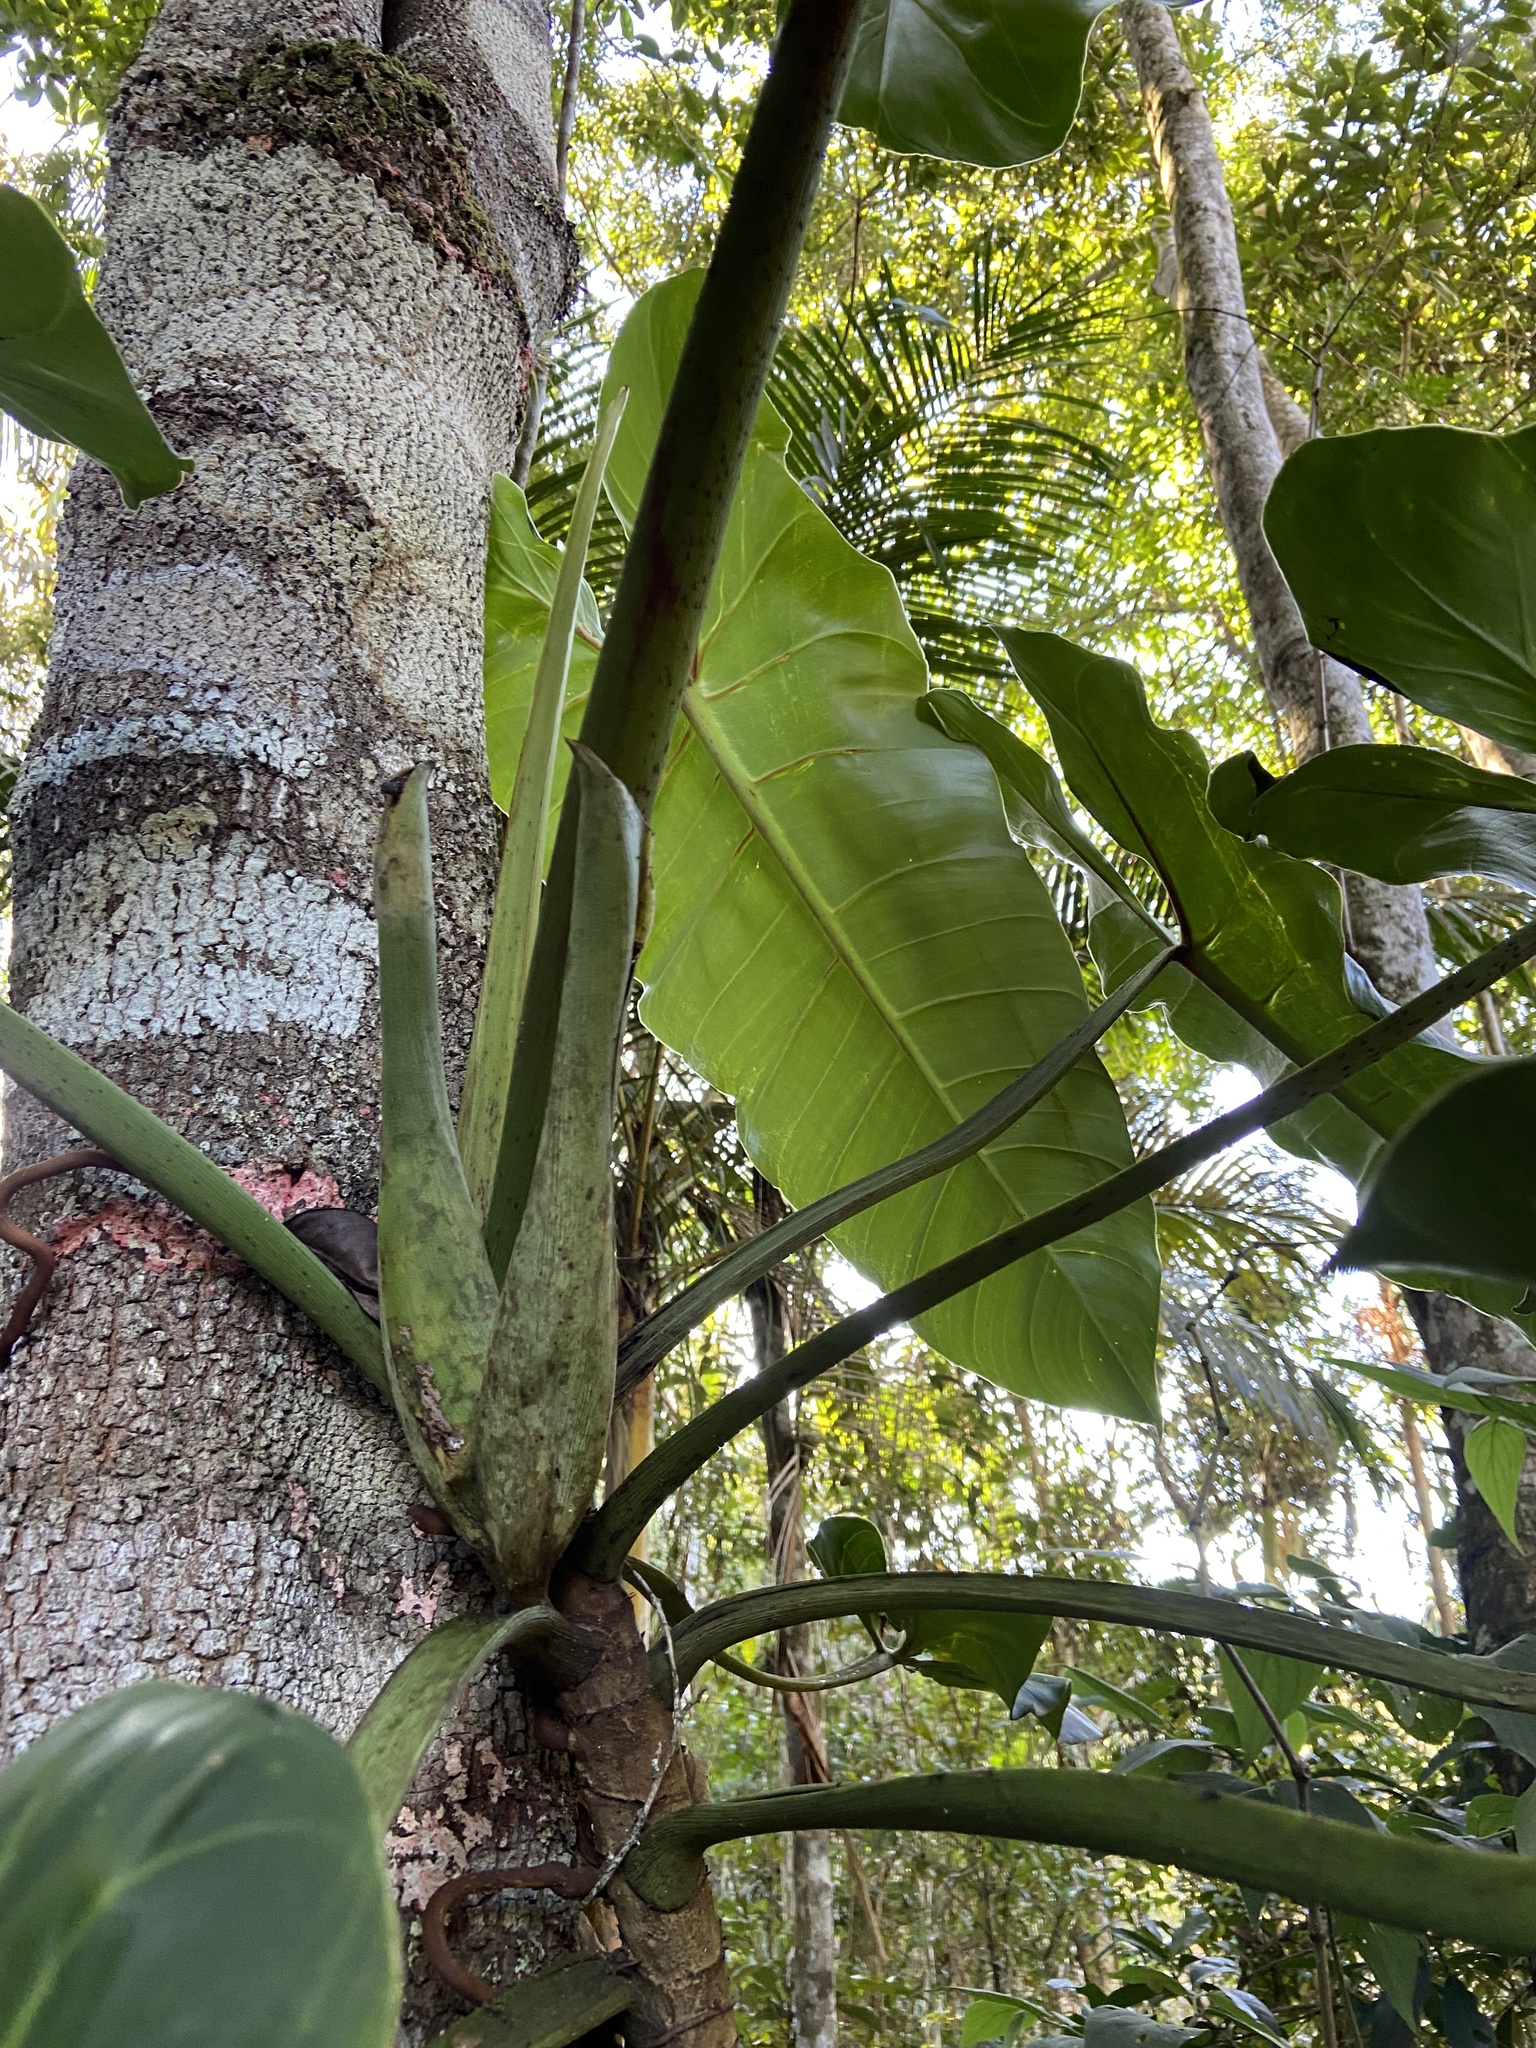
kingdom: Plantae
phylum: Tracheophyta
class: Liliopsida
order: Alismatales
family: Araceae
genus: Philodendron
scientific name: Philodendron bernardopazii
